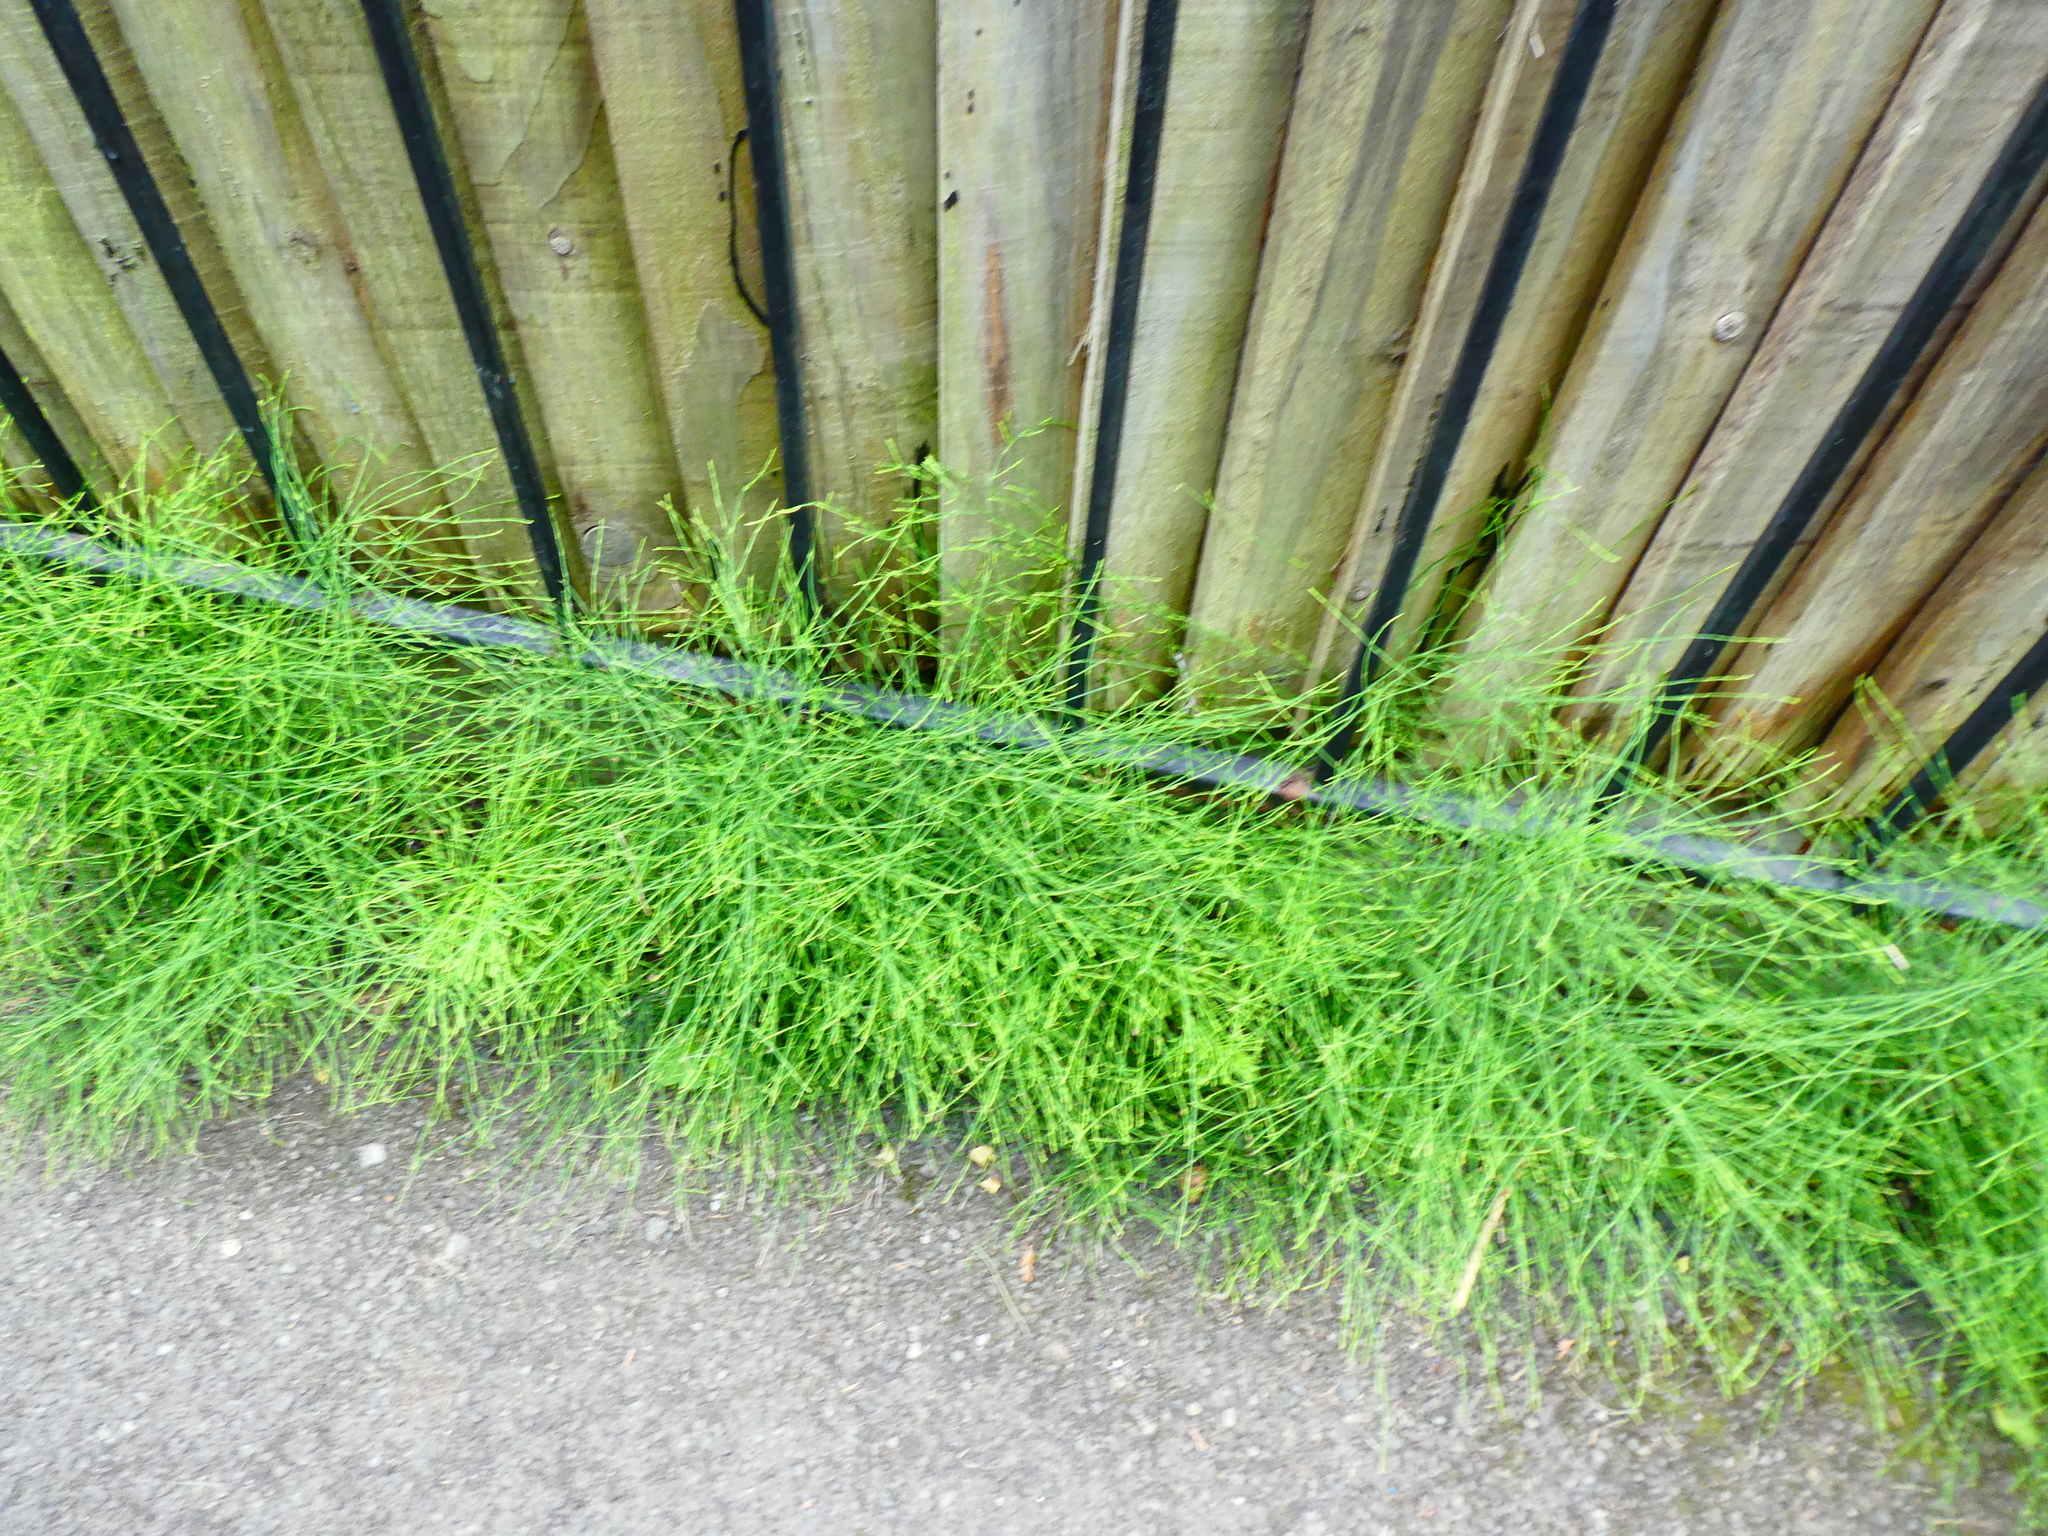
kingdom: Plantae
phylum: Tracheophyta
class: Polypodiopsida
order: Equisetales
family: Equisetaceae
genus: Equisetum
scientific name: Equisetum arvense
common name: Field horsetail
